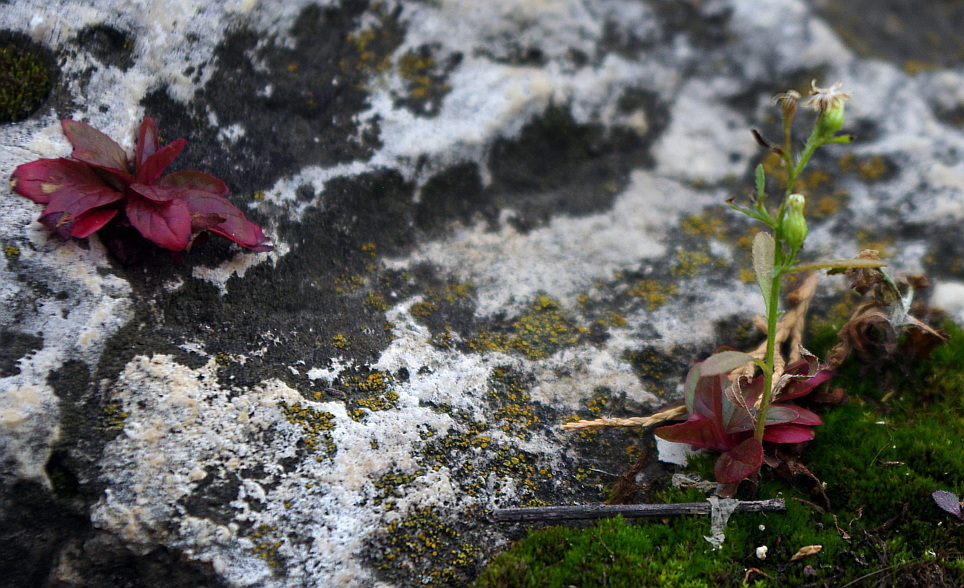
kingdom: Plantae
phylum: Tracheophyta
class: Magnoliopsida
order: Asterales
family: Asteraceae
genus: Erigeron
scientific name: Erigeron canadensis
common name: Canadian fleabane
